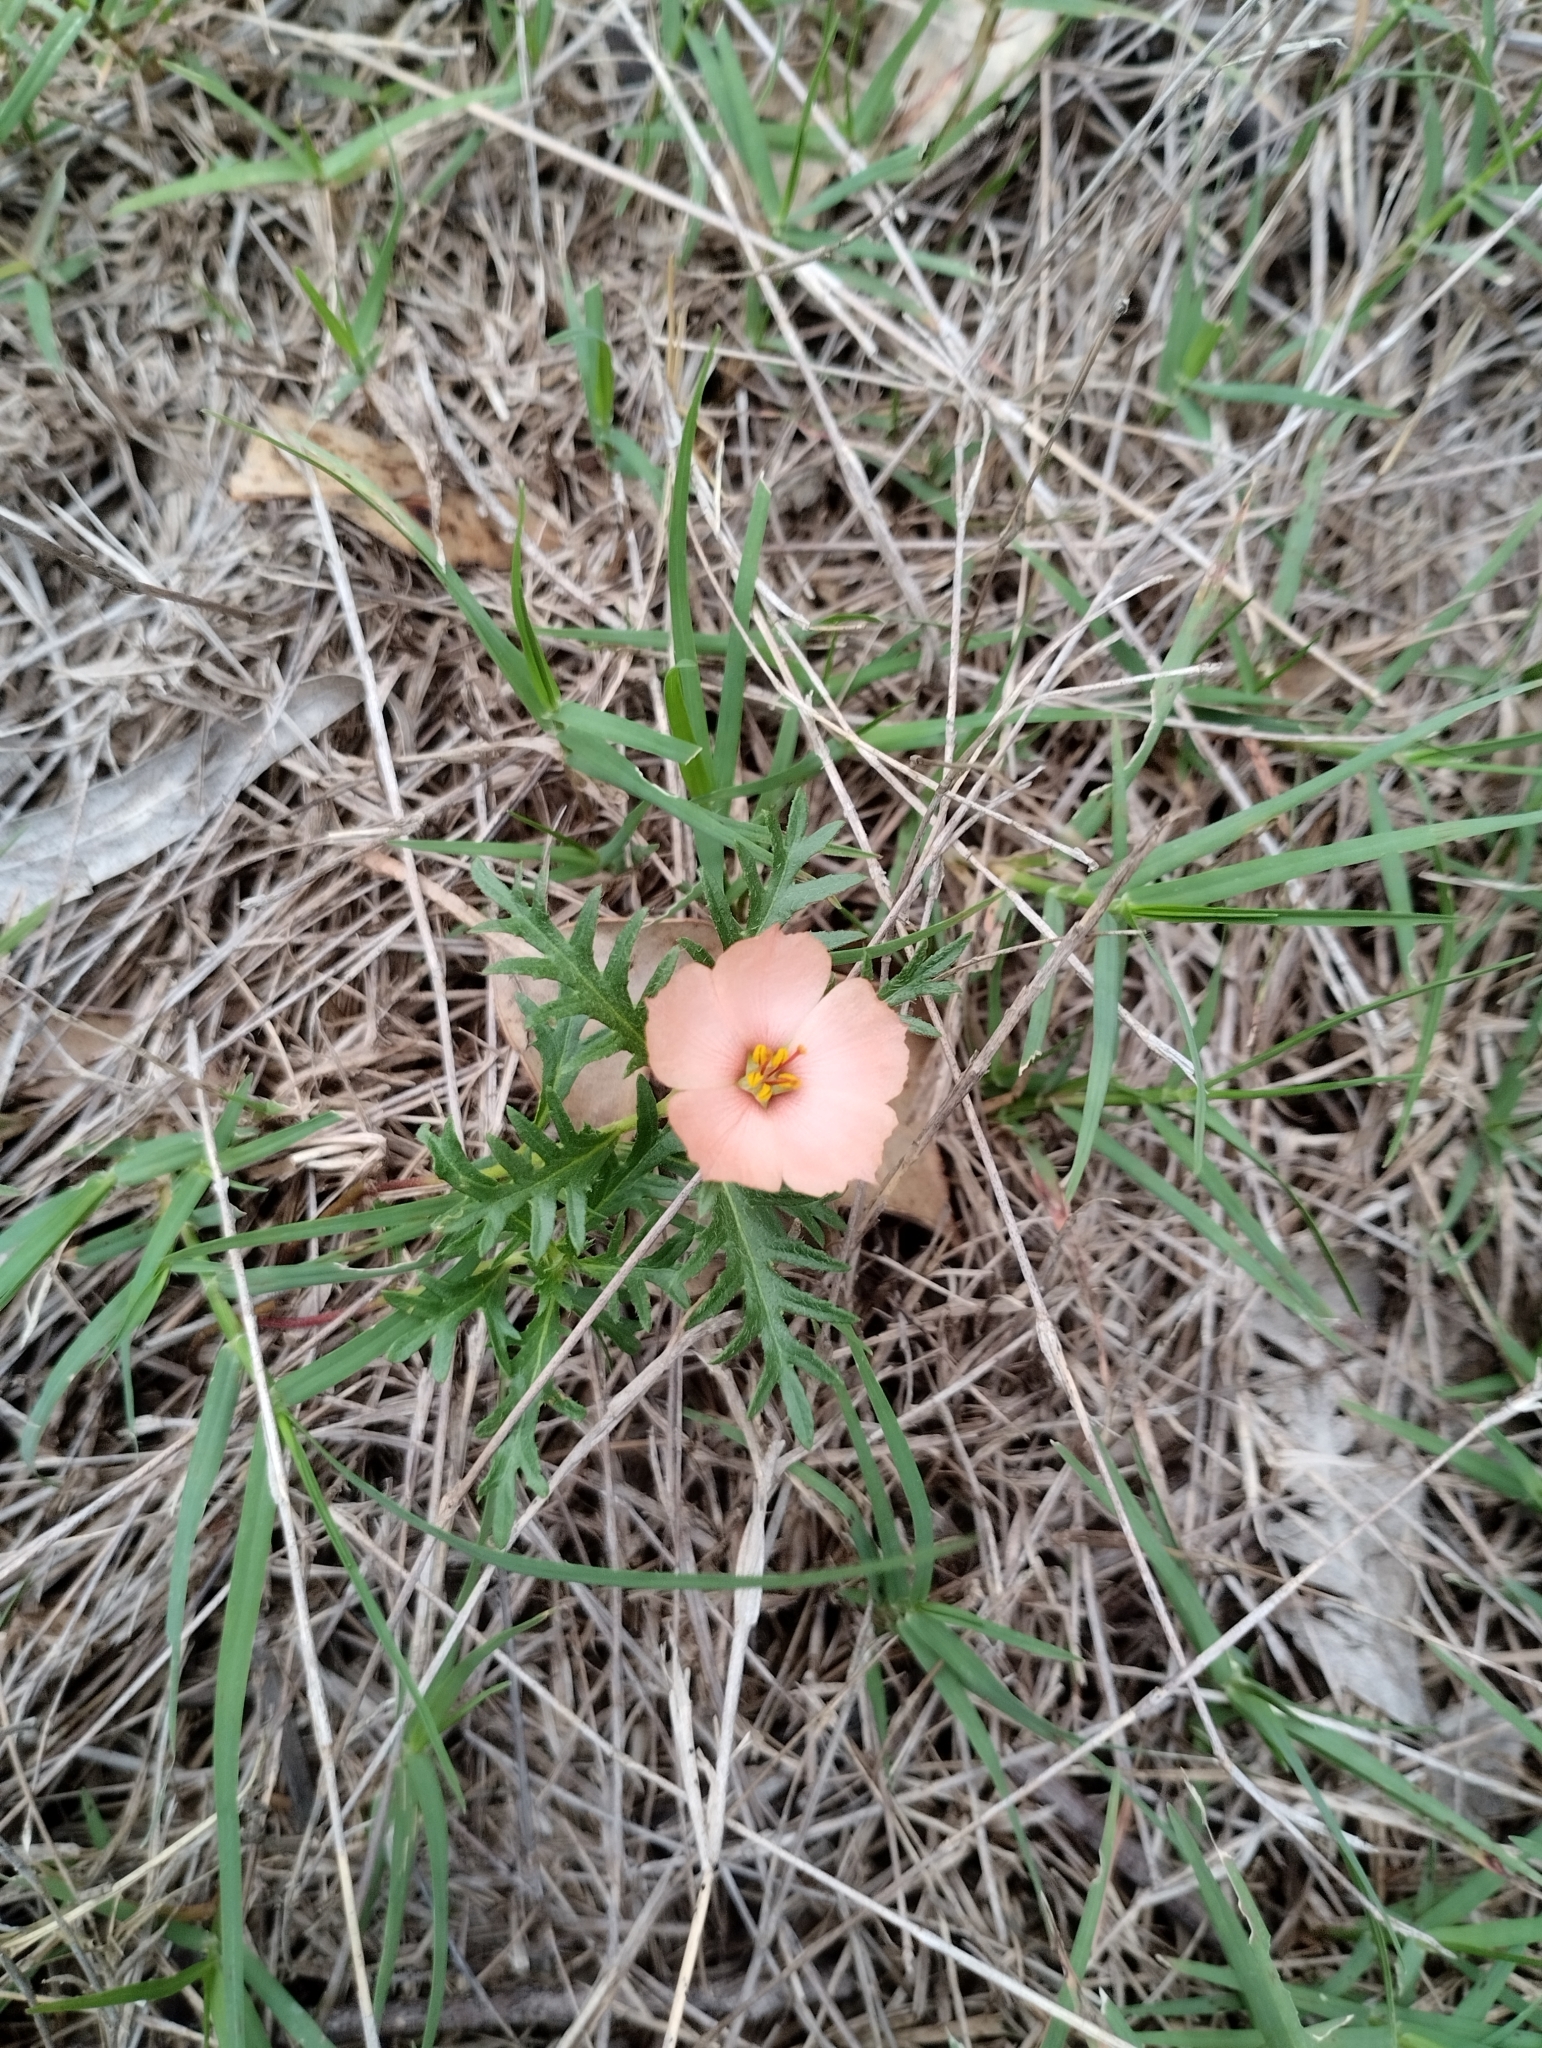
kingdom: Plantae
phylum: Tracheophyta
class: Magnoliopsida
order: Malpighiales
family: Turneraceae
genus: Turnera
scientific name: Turnera sidoides
